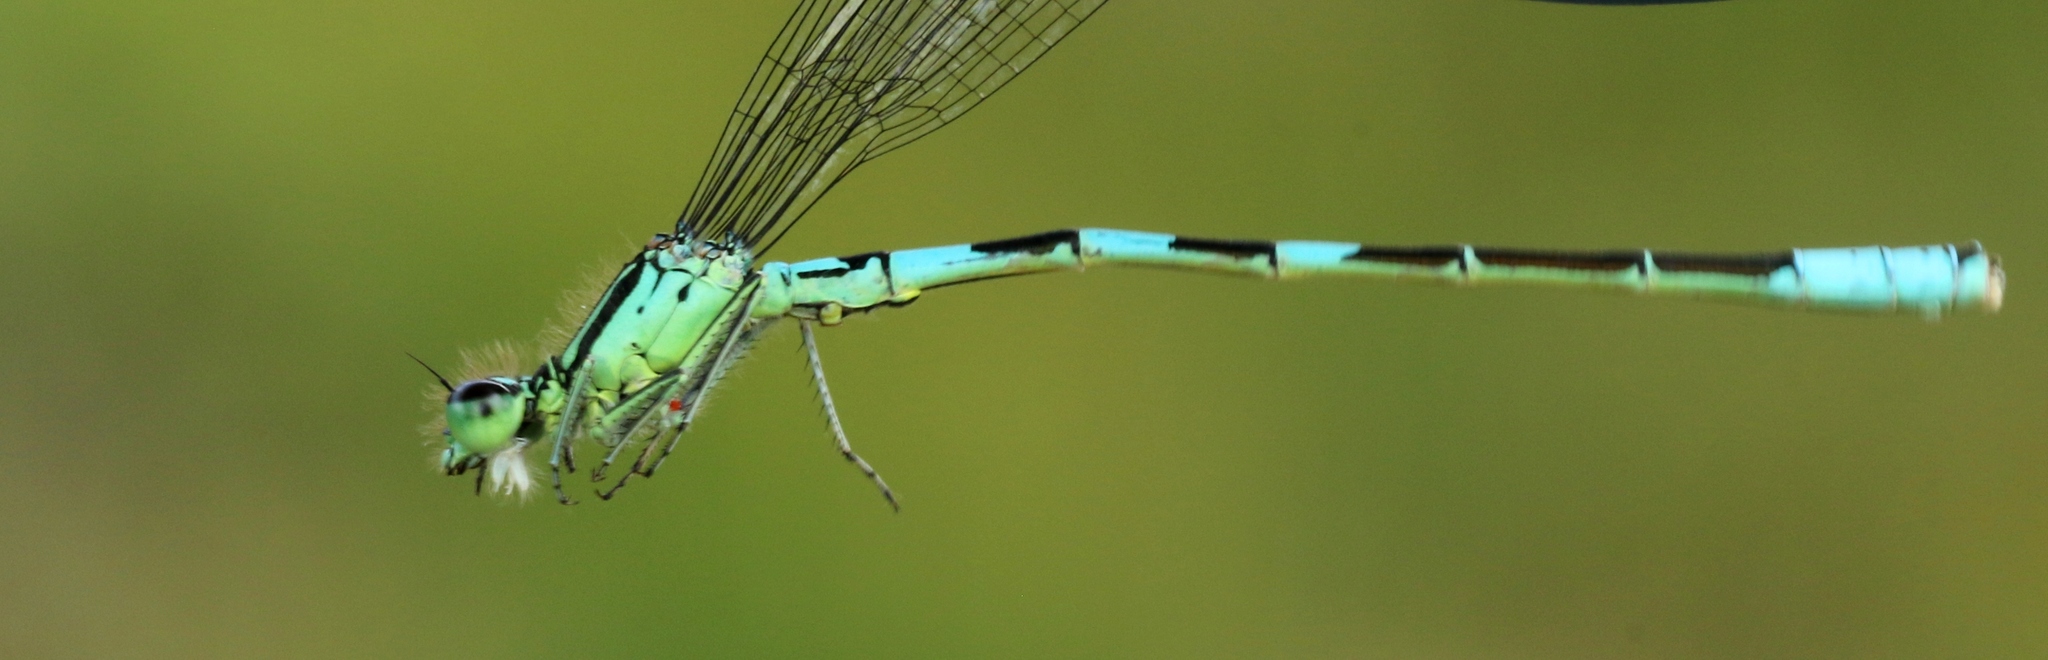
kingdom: Animalia
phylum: Arthropoda
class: Insecta
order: Odonata
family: Coenagrionidae
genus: Coenagrion
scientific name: Coenagrion resolutum
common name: Taiga bluet
